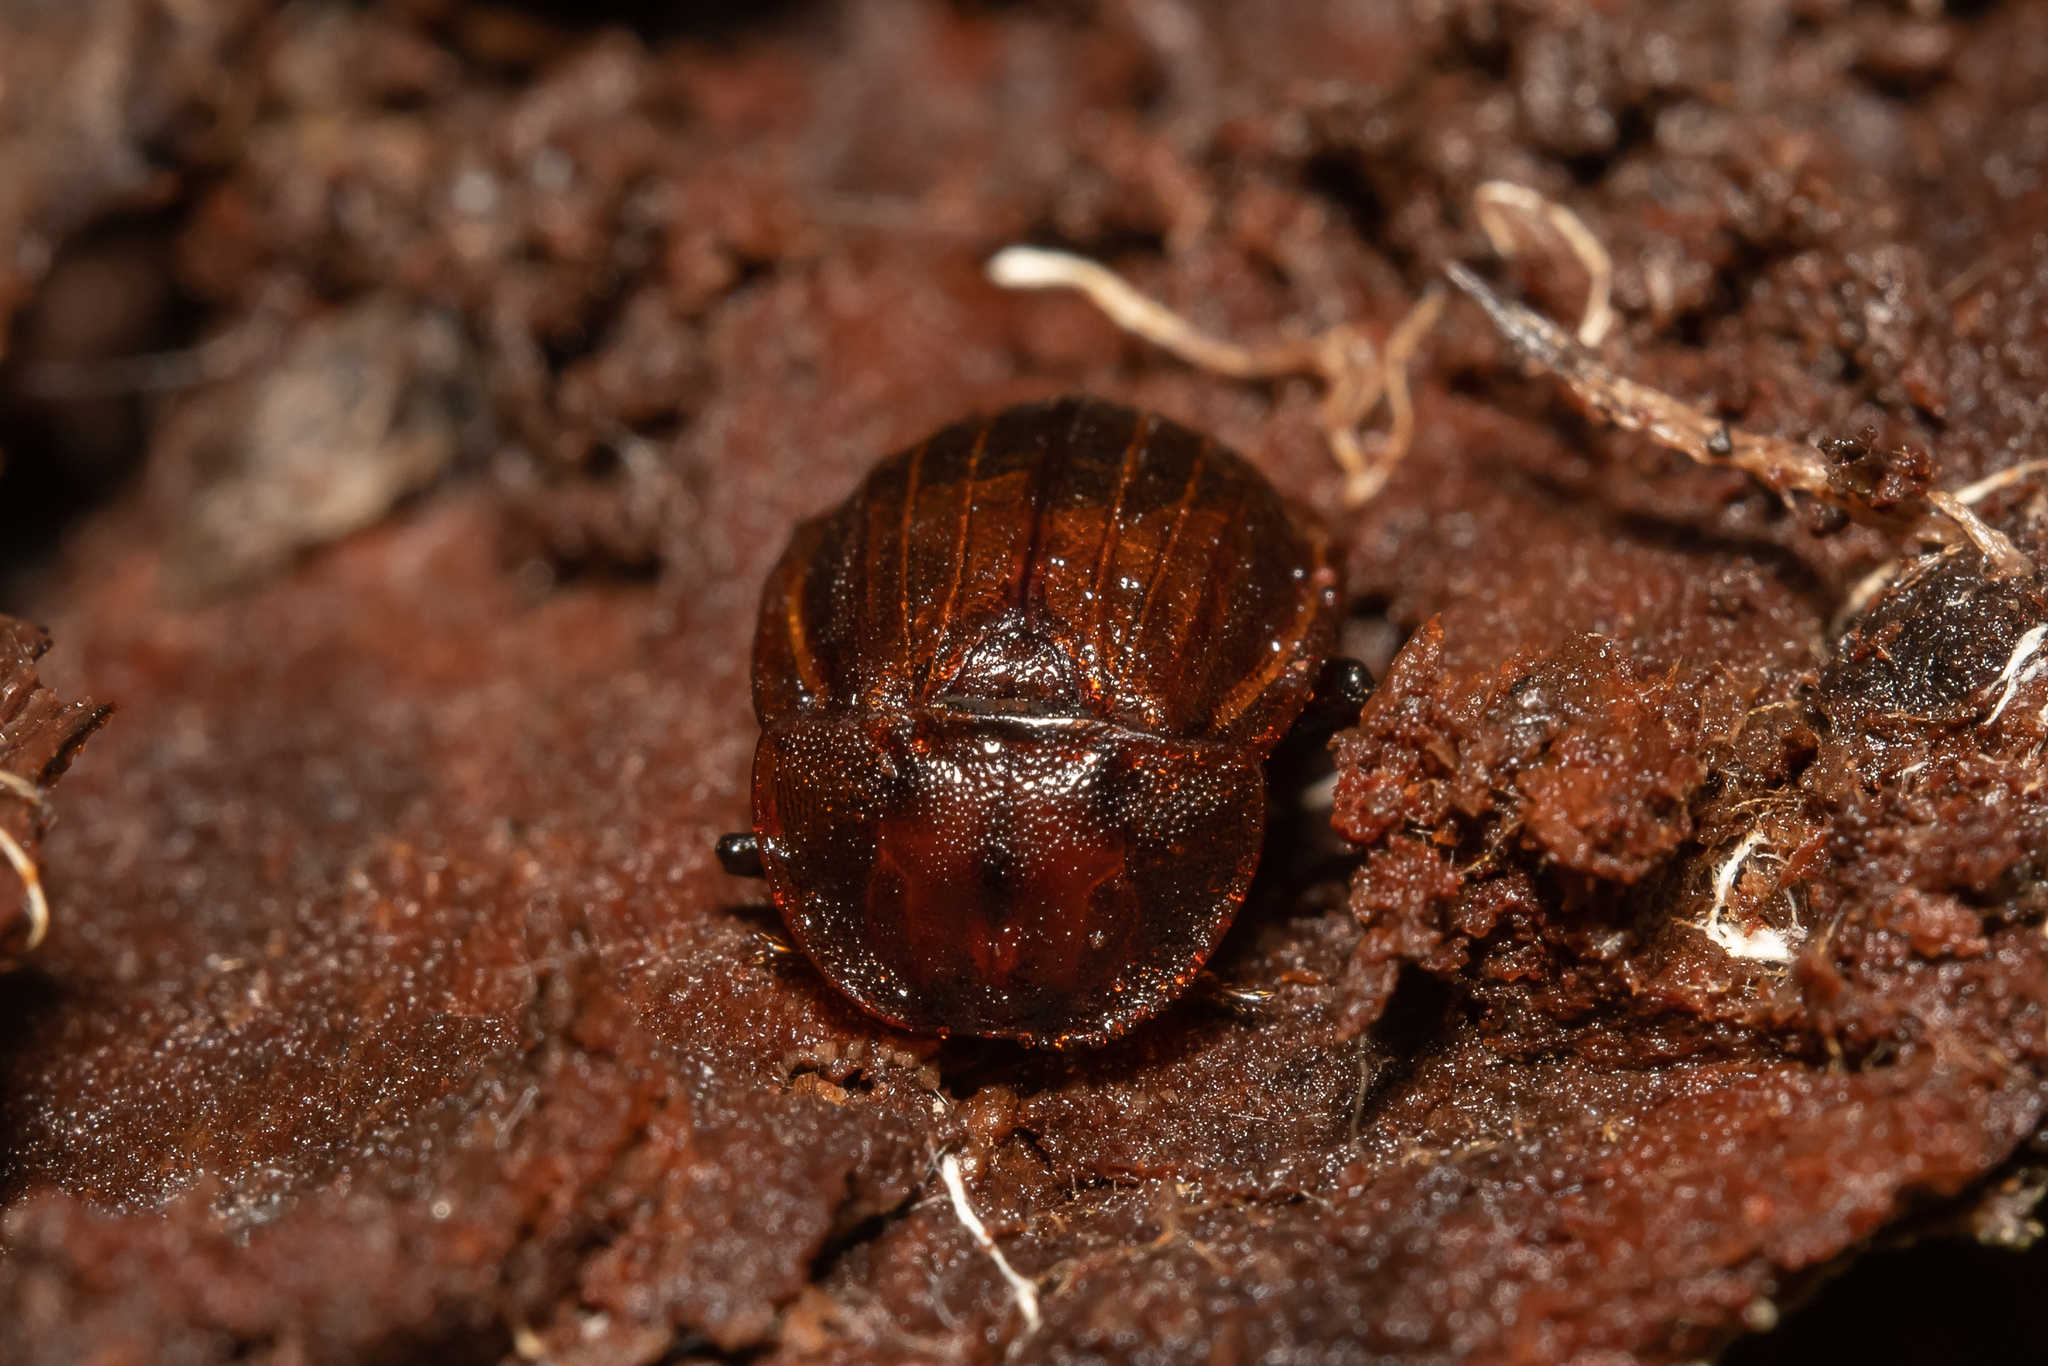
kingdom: Animalia
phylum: Arthropoda
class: Insecta
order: Coleoptera
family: Staphylinidae
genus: Silpha
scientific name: Silpha atrata
